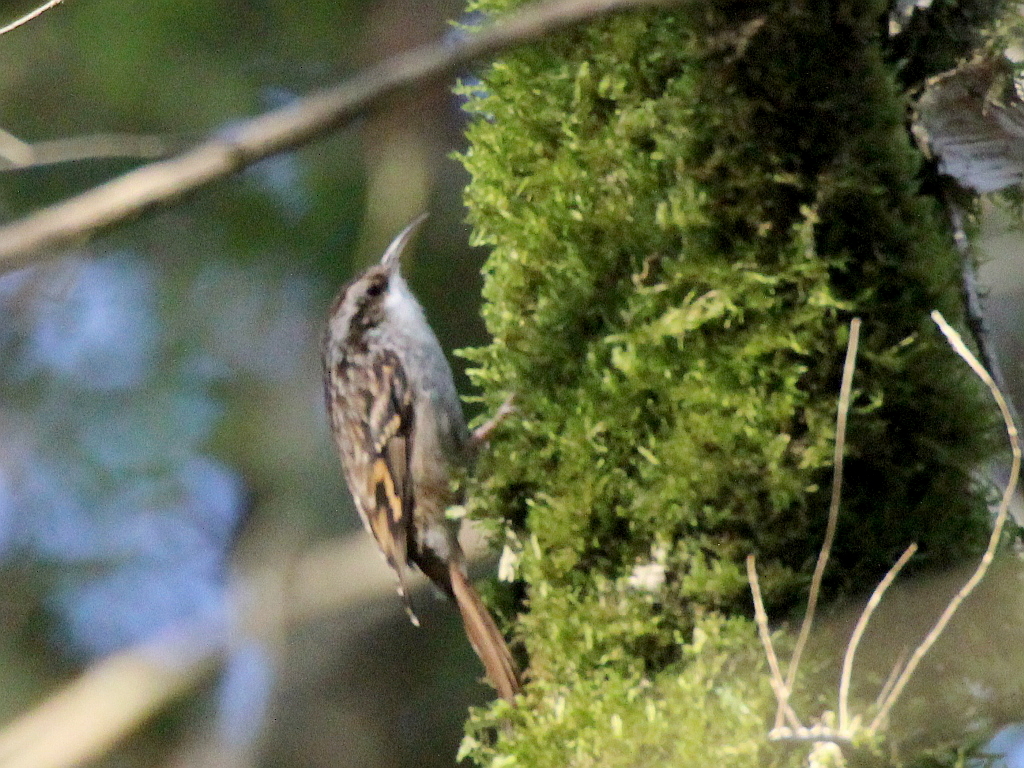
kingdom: Animalia
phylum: Chordata
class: Aves
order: Passeriformes
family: Certhiidae
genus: Certhia
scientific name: Certhia brachydactyla
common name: Short-toed treecreeper
